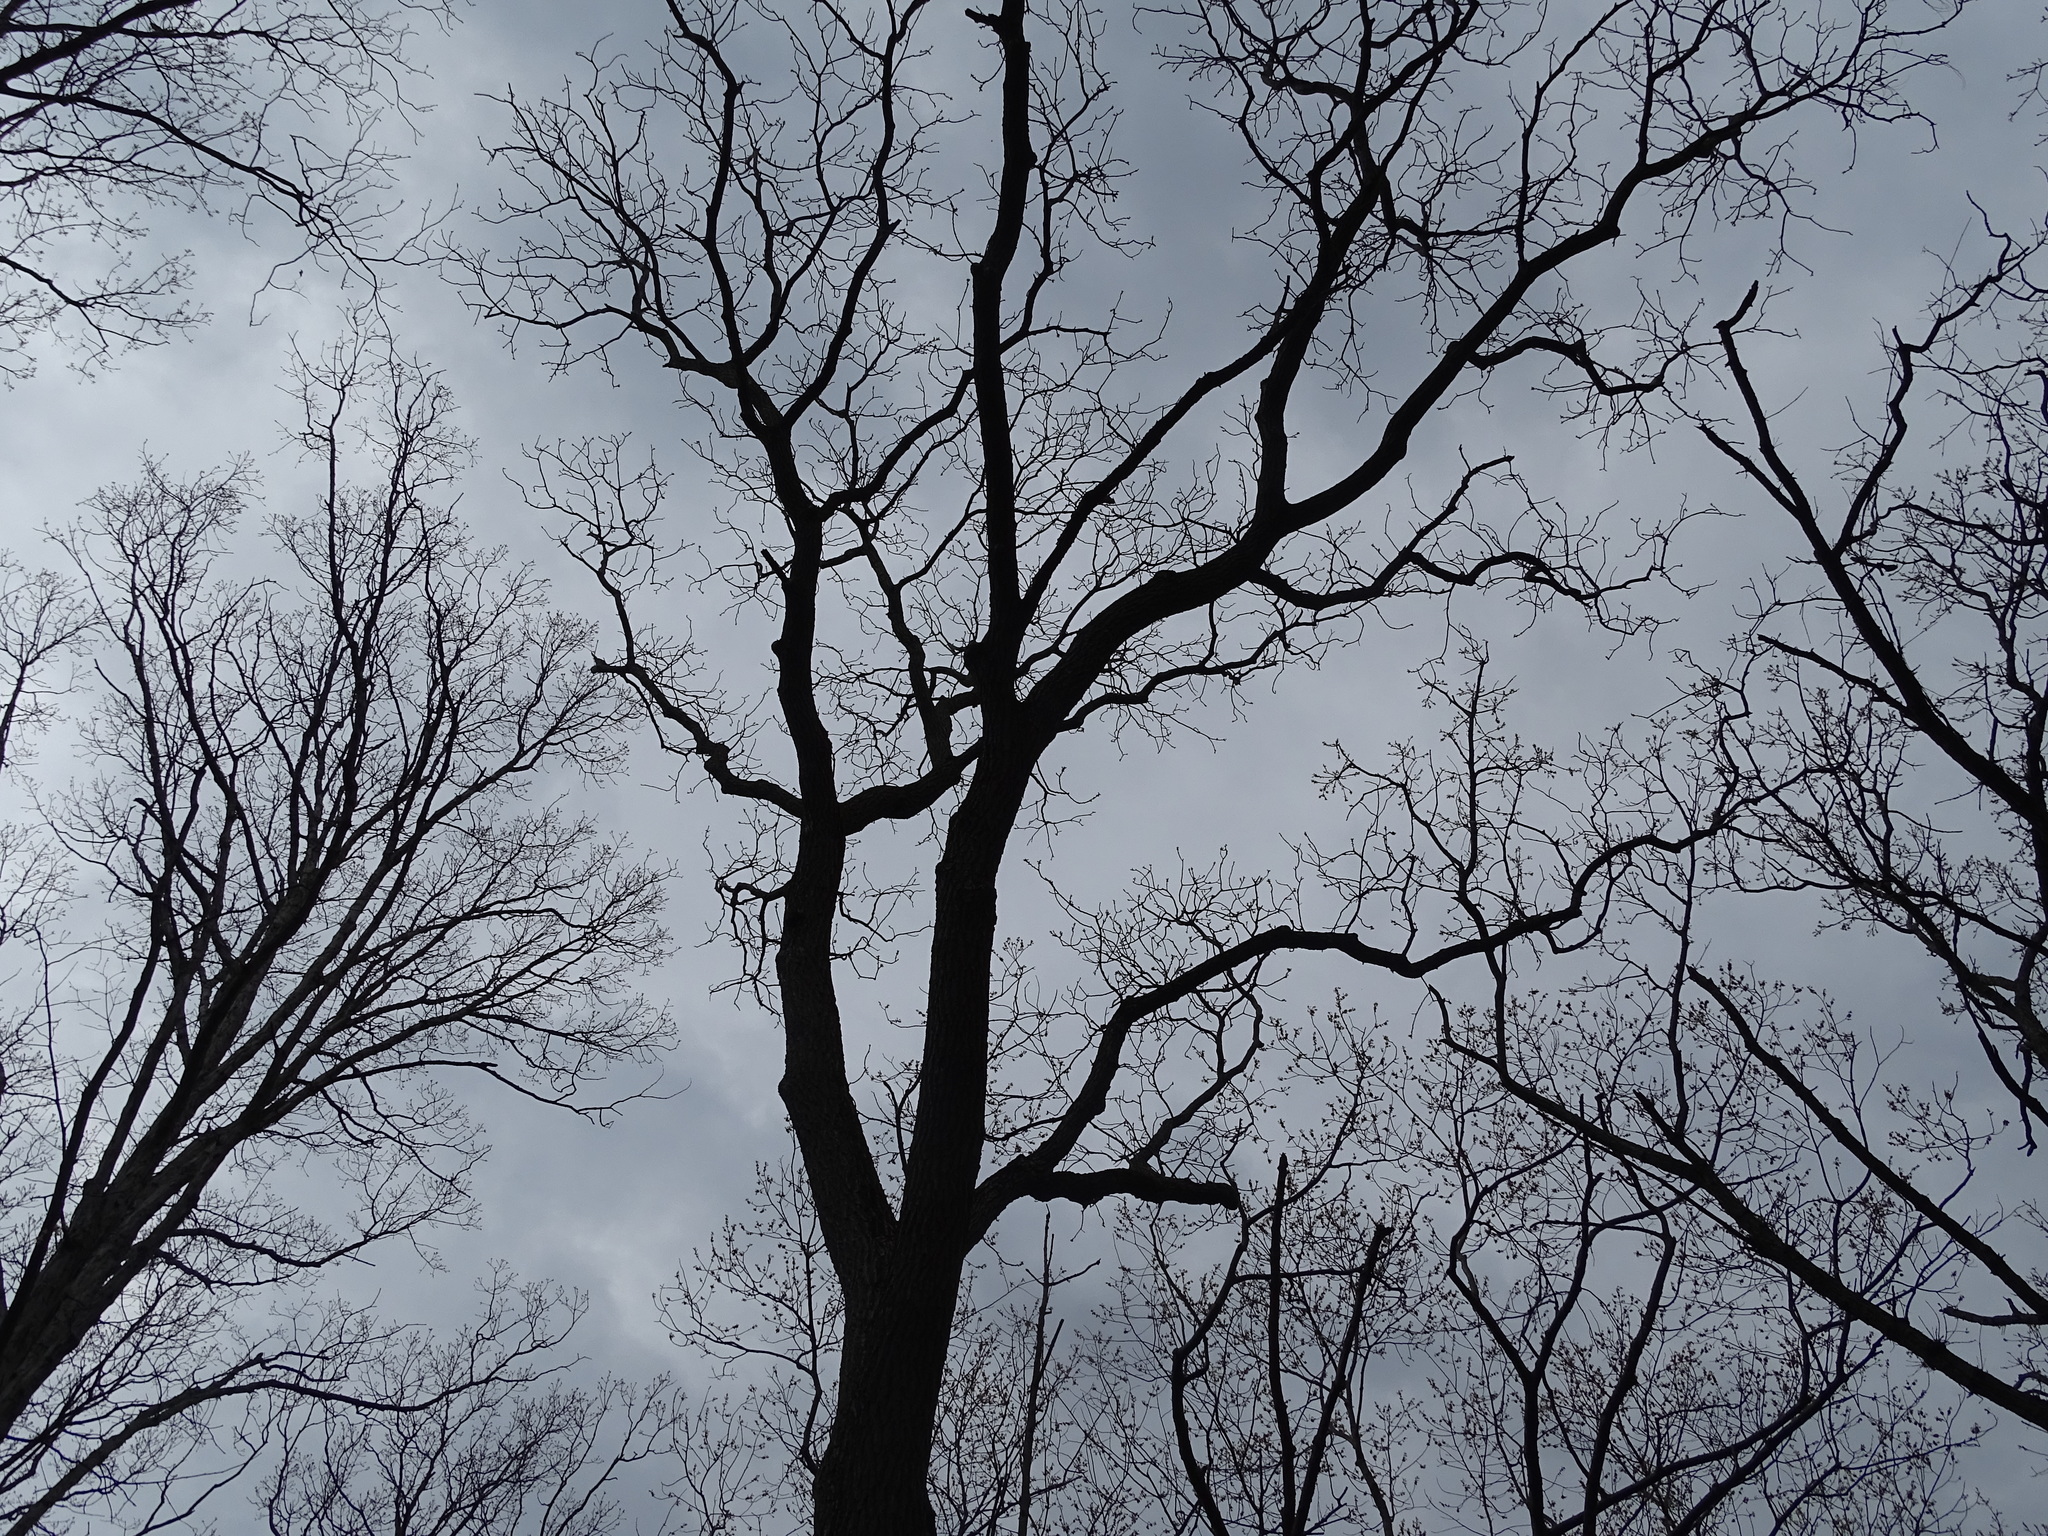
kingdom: Plantae
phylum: Tracheophyta
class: Magnoliopsida
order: Fagales
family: Juglandaceae
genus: Juglans
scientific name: Juglans nigra
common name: Black walnut
